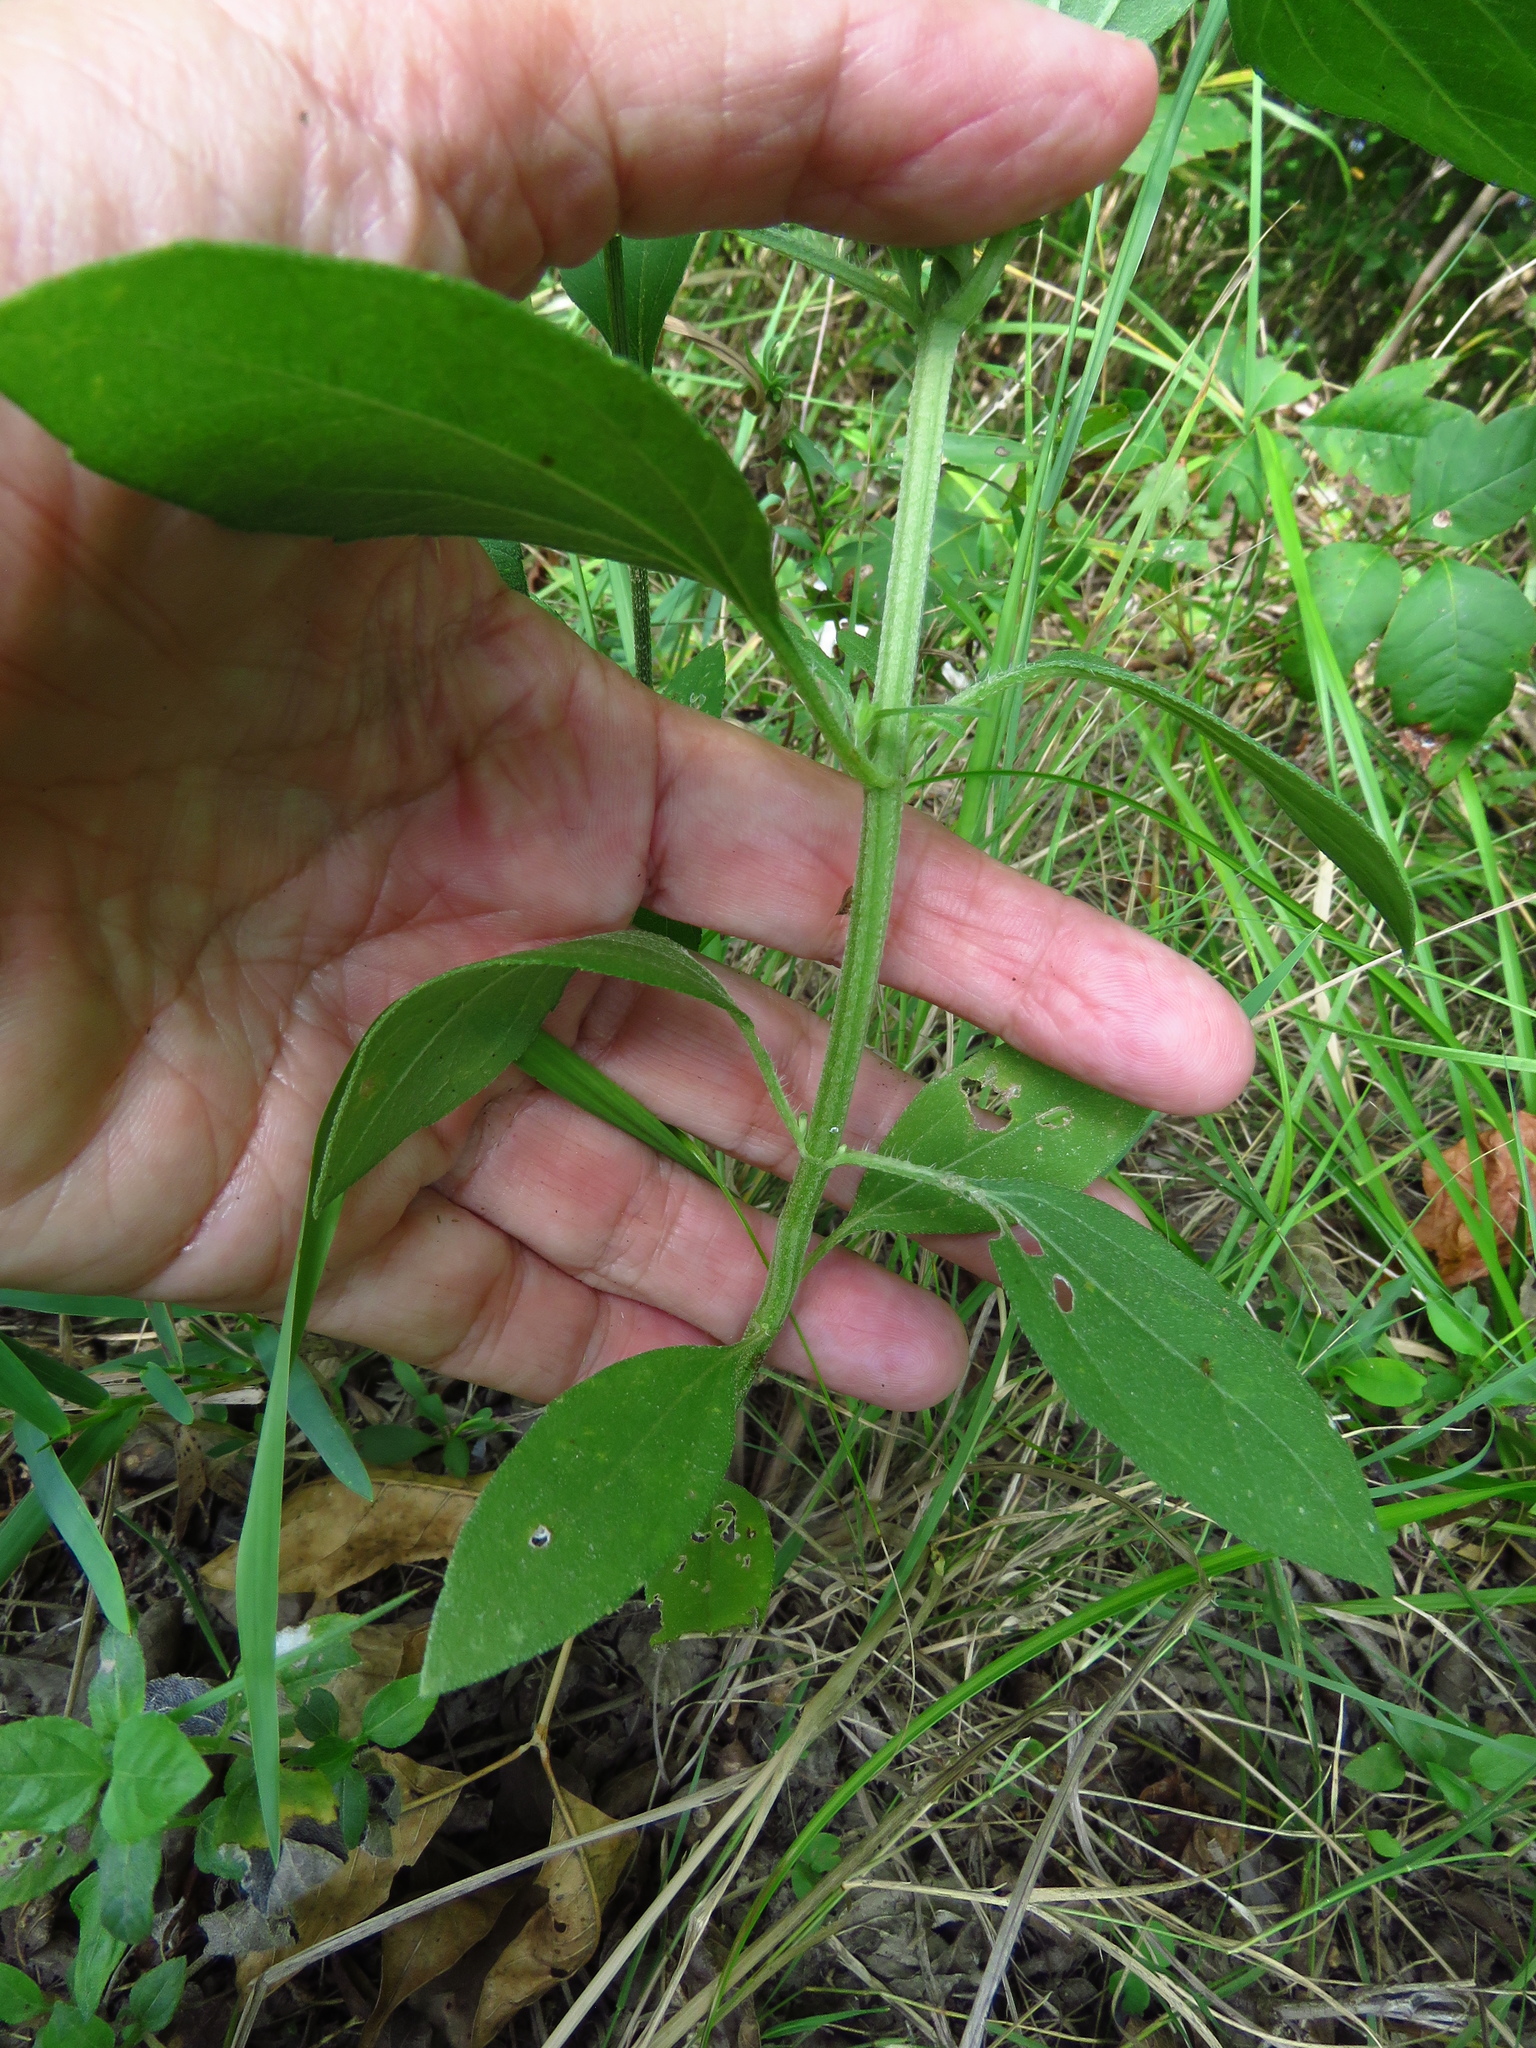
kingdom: Plantae
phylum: Tracheophyta
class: Magnoliopsida
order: Asterales
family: Asteraceae
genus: Iva
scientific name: Iva annua
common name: Marsh-elder
